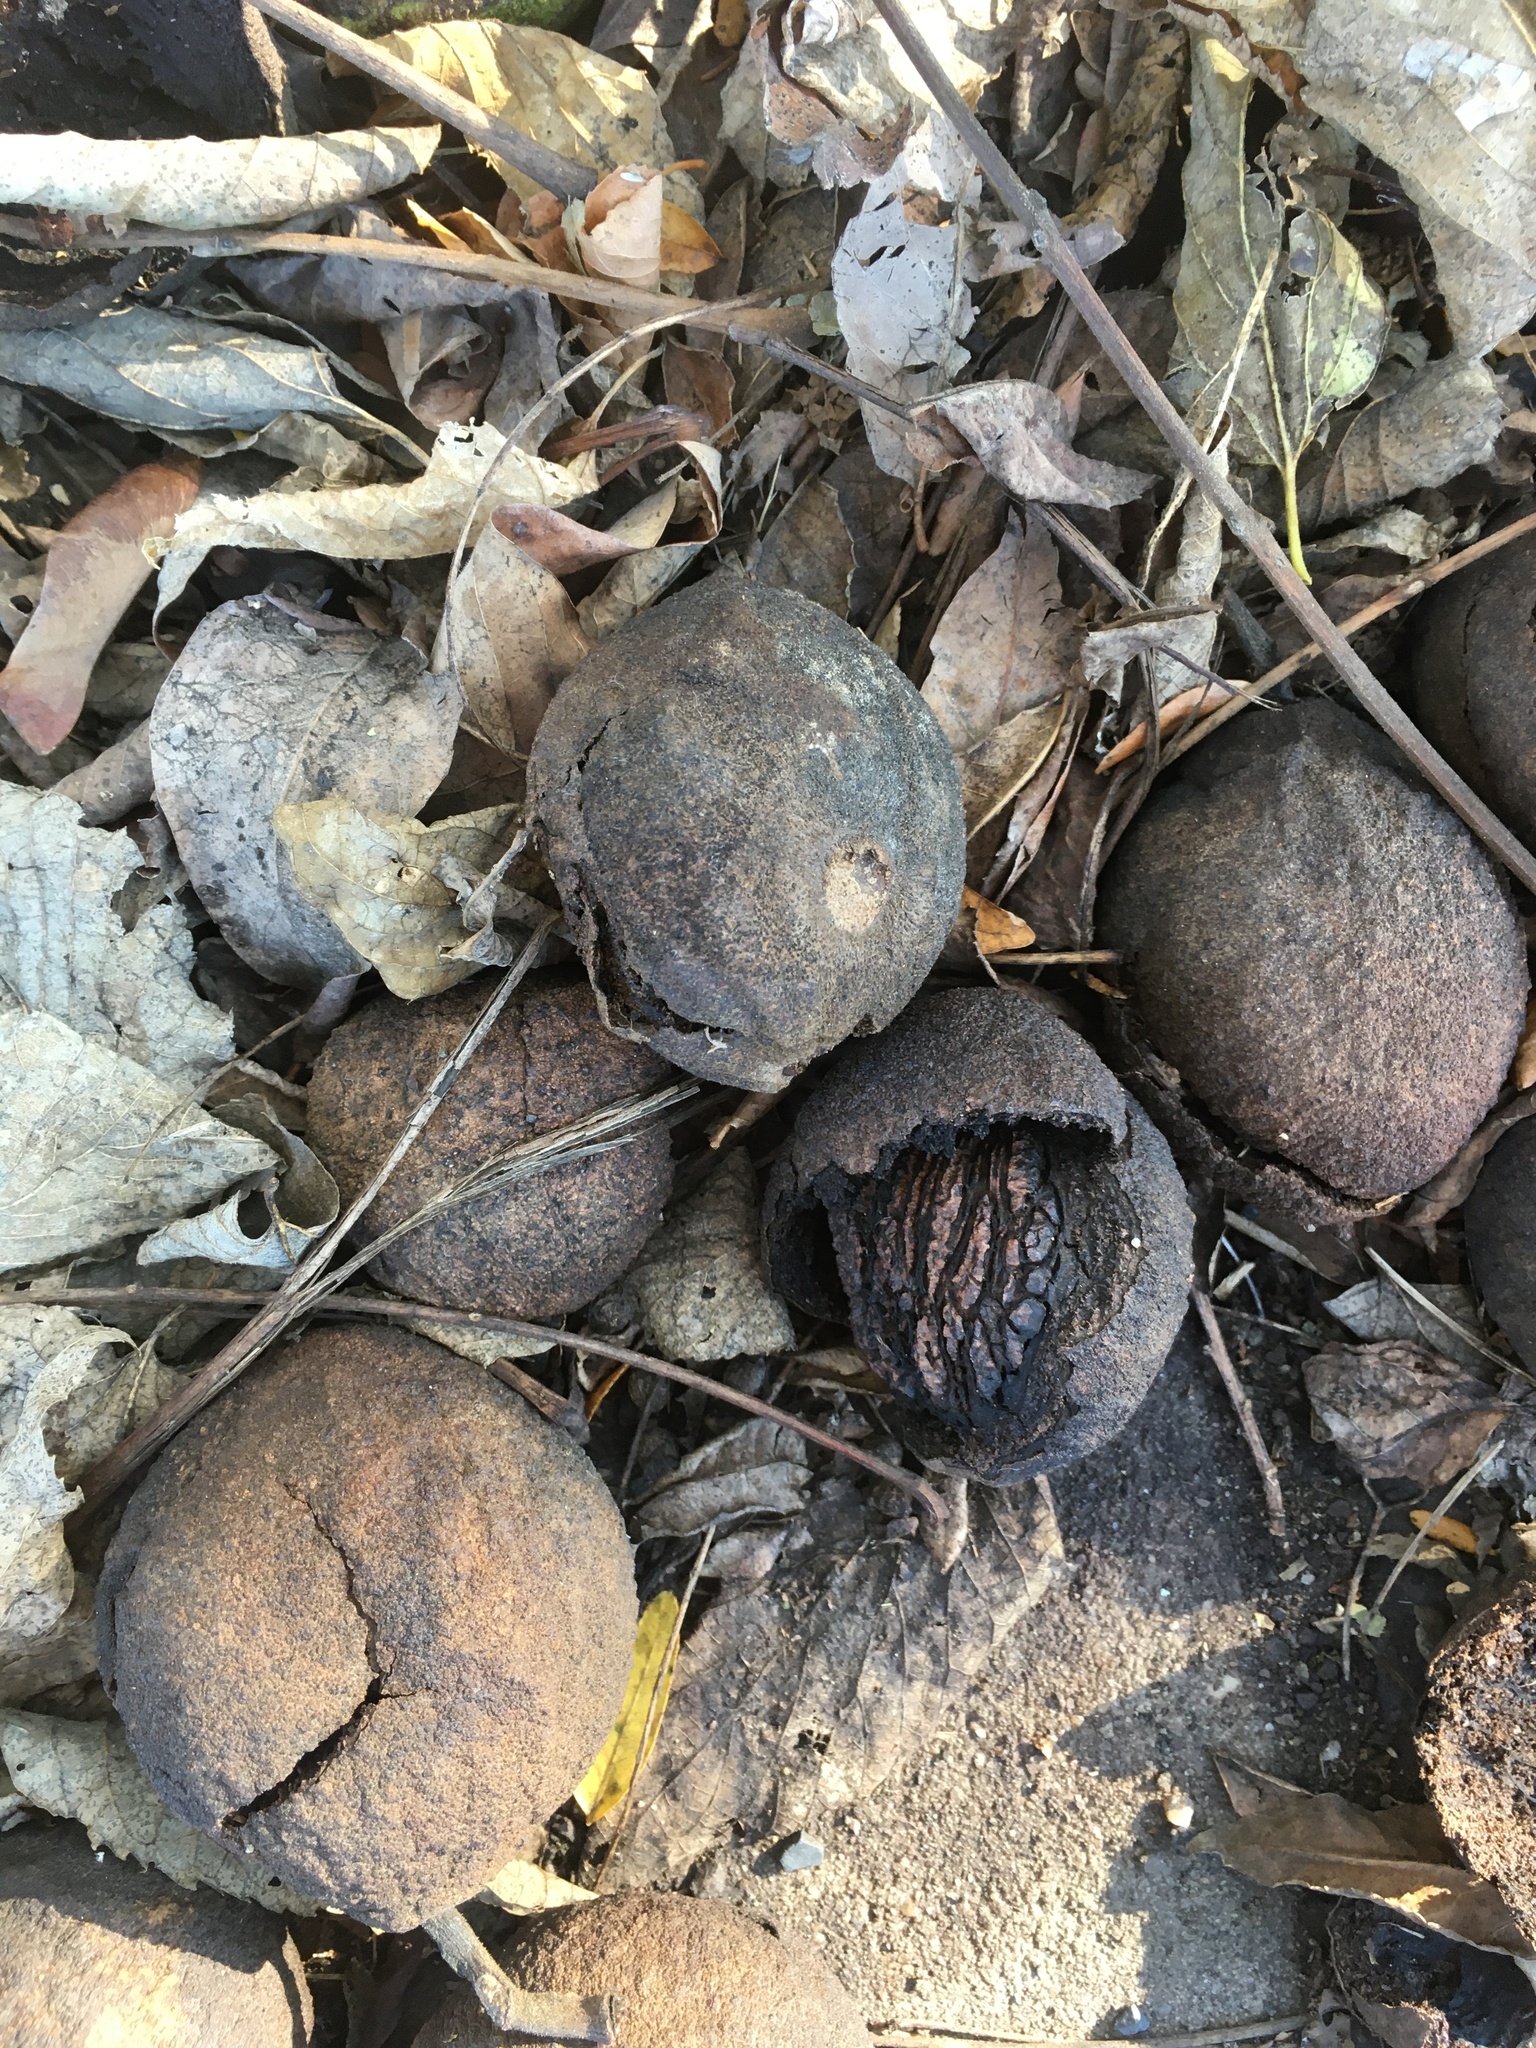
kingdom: Plantae
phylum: Tracheophyta
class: Magnoliopsida
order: Fagales
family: Juglandaceae
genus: Juglans
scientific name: Juglans nigra
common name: Black walnut
